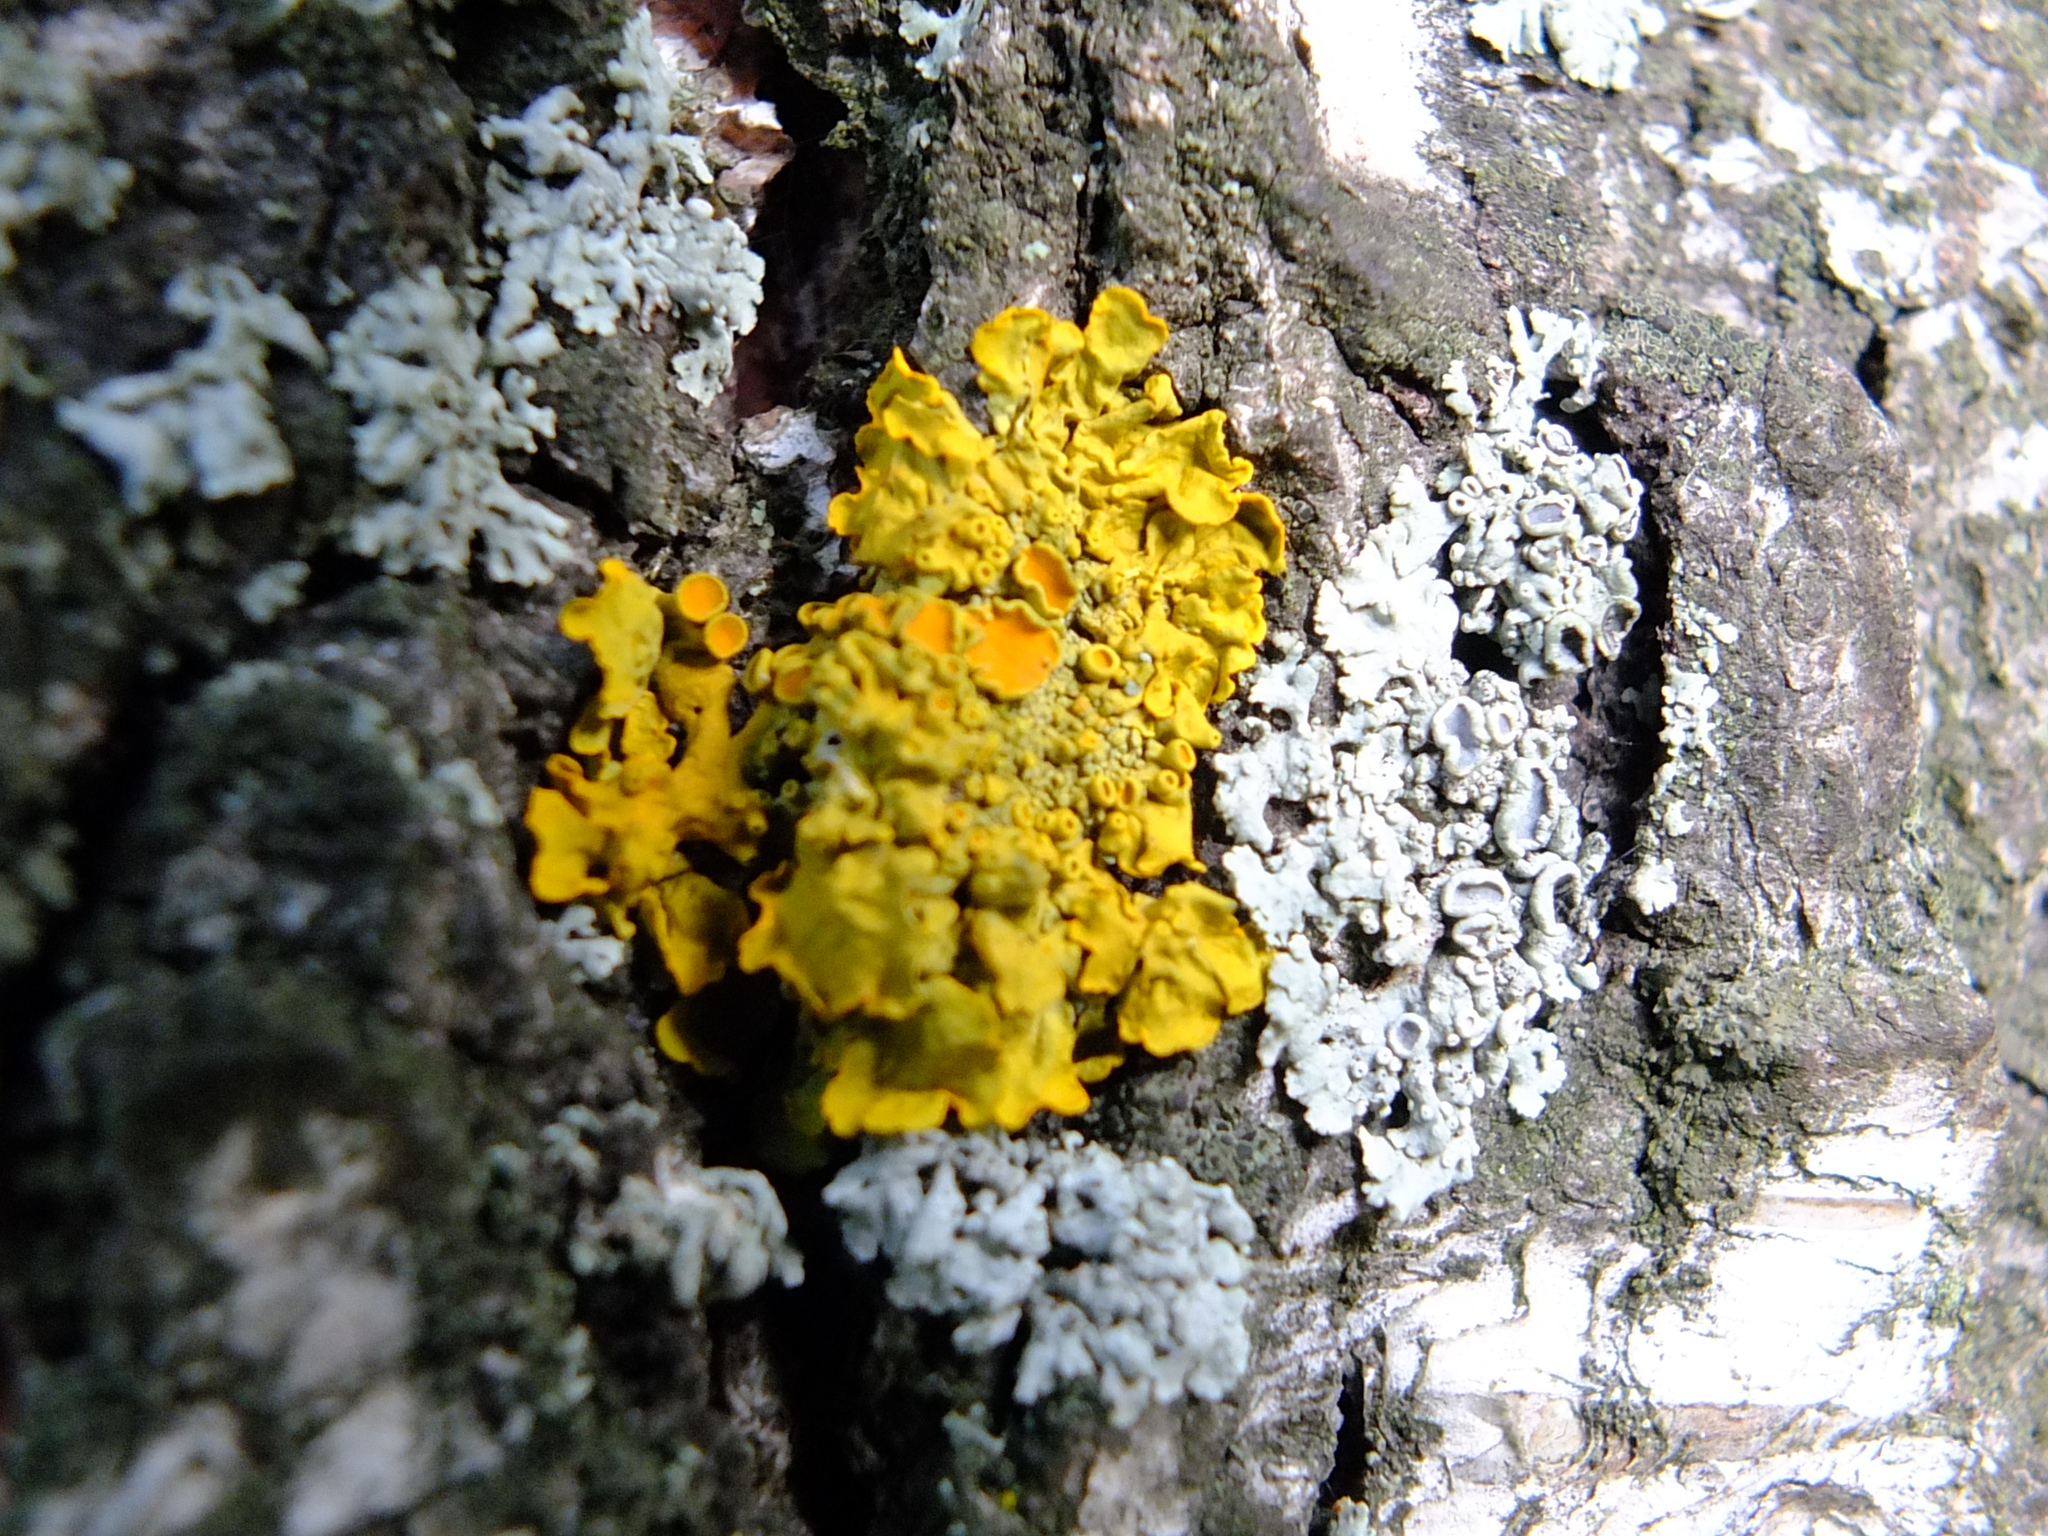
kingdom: Fungi
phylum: Ascomycota
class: Lecanoromycetes
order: Teloschistales
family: Teloschistaceae
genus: Xanthoria
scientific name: Xanthoria parietina
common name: Common orange lichen
